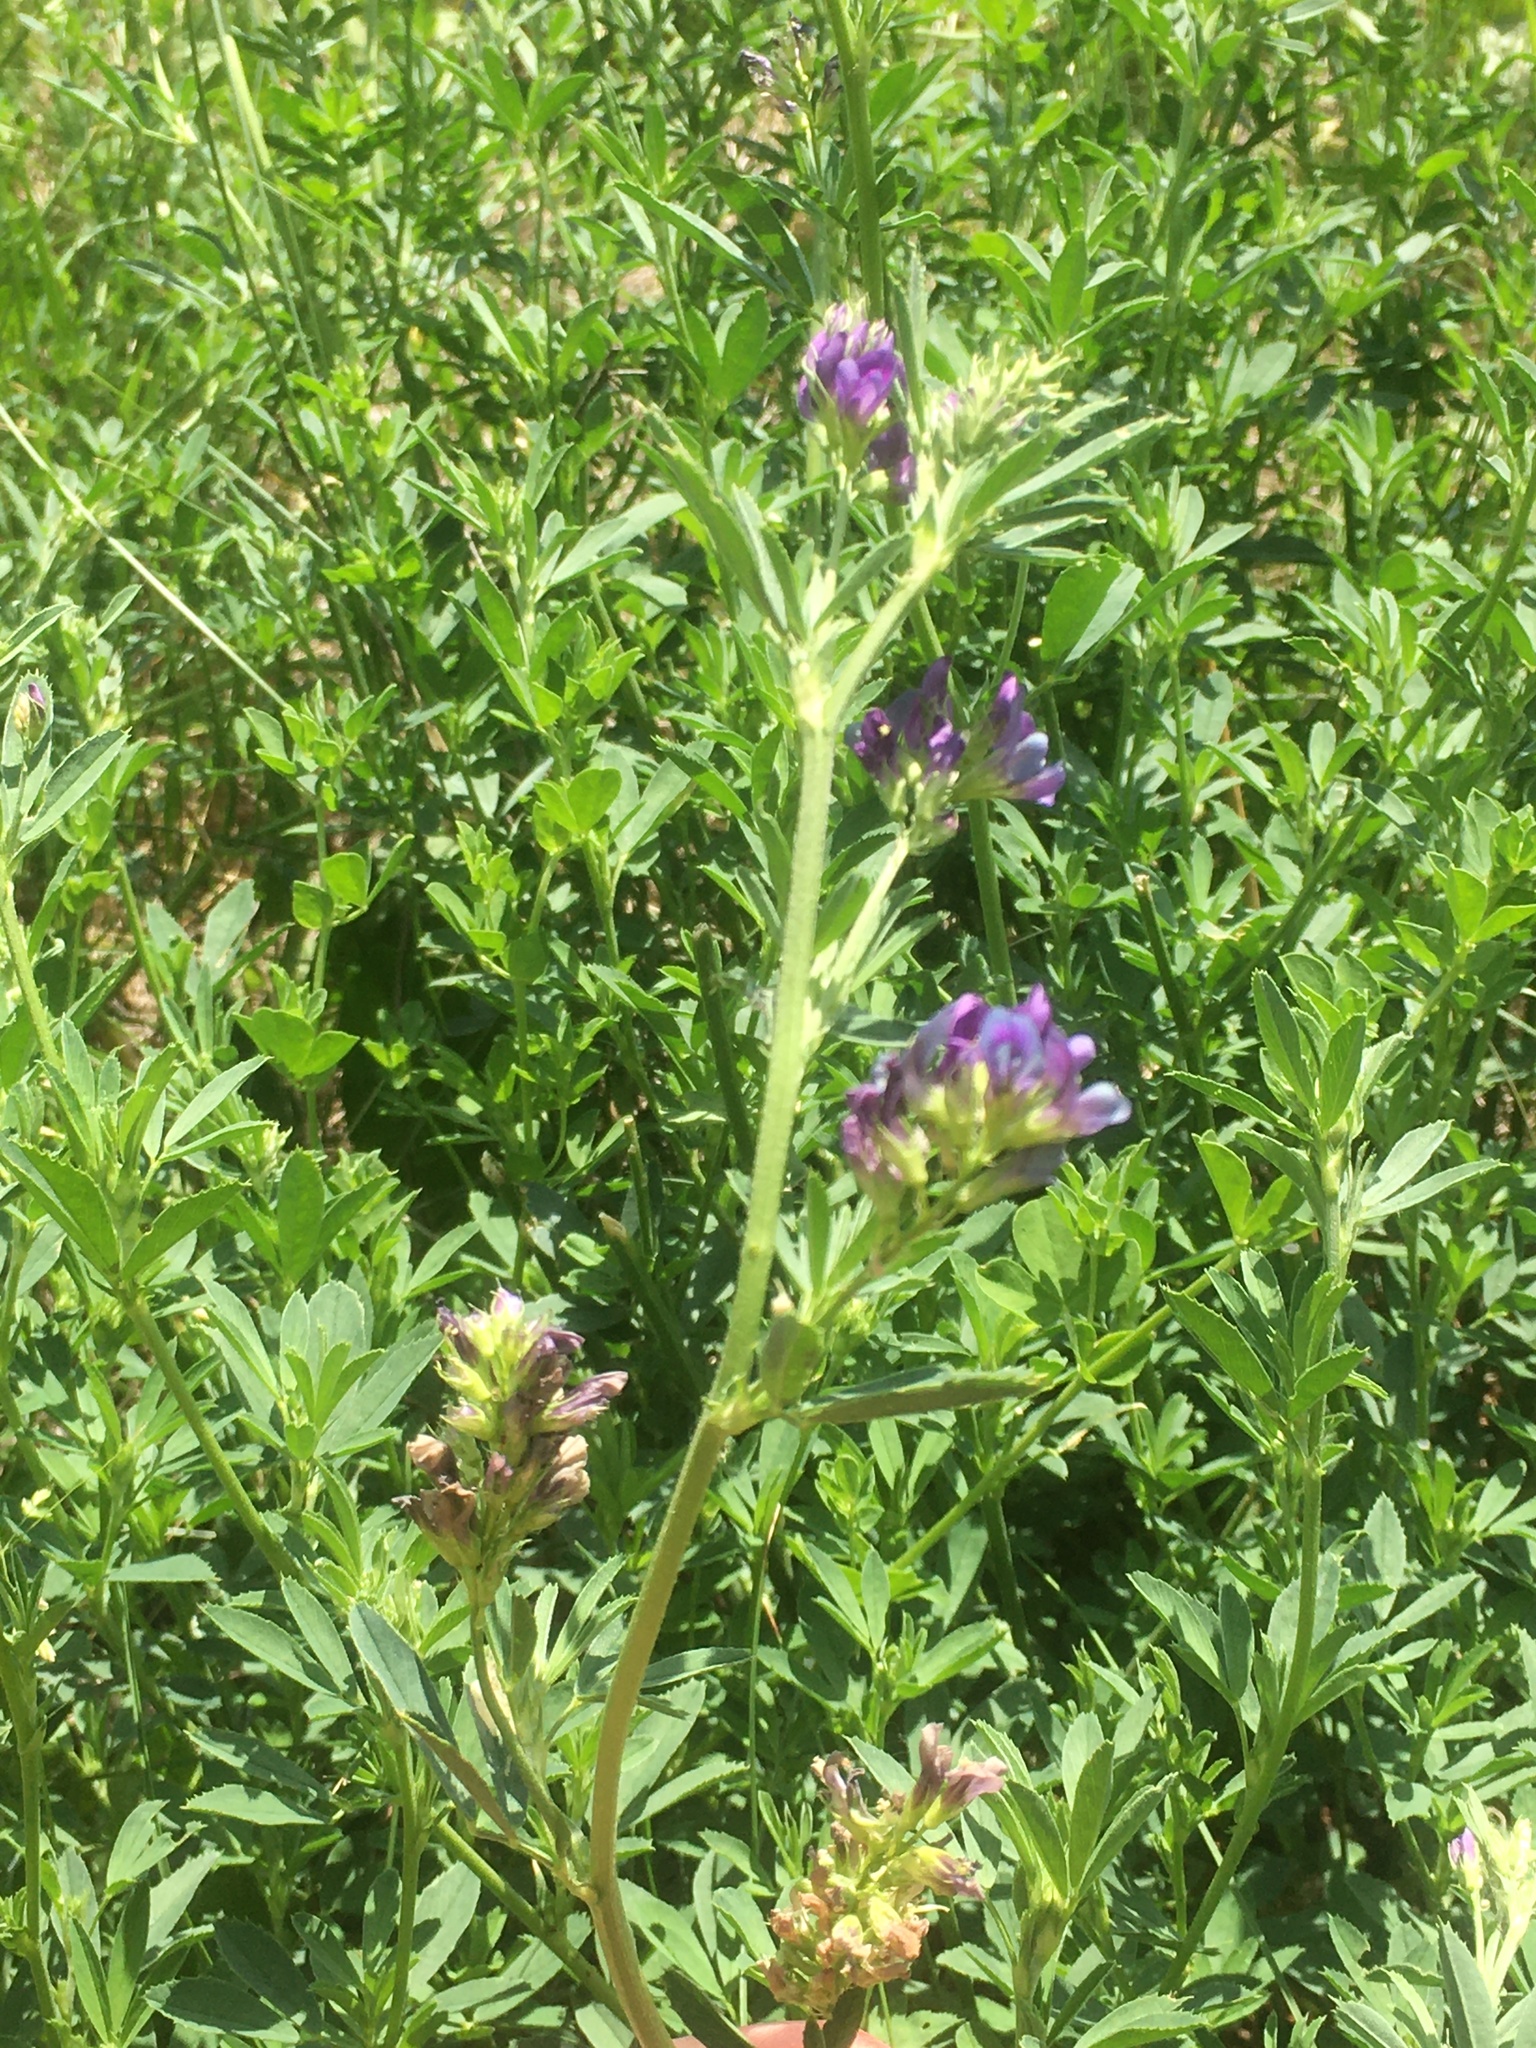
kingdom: Plantae
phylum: Tracheophyta
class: Magnoliopsida
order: Fabales
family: Fabaceae
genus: Medicago
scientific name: Medicago sativa
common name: Alfalfa
